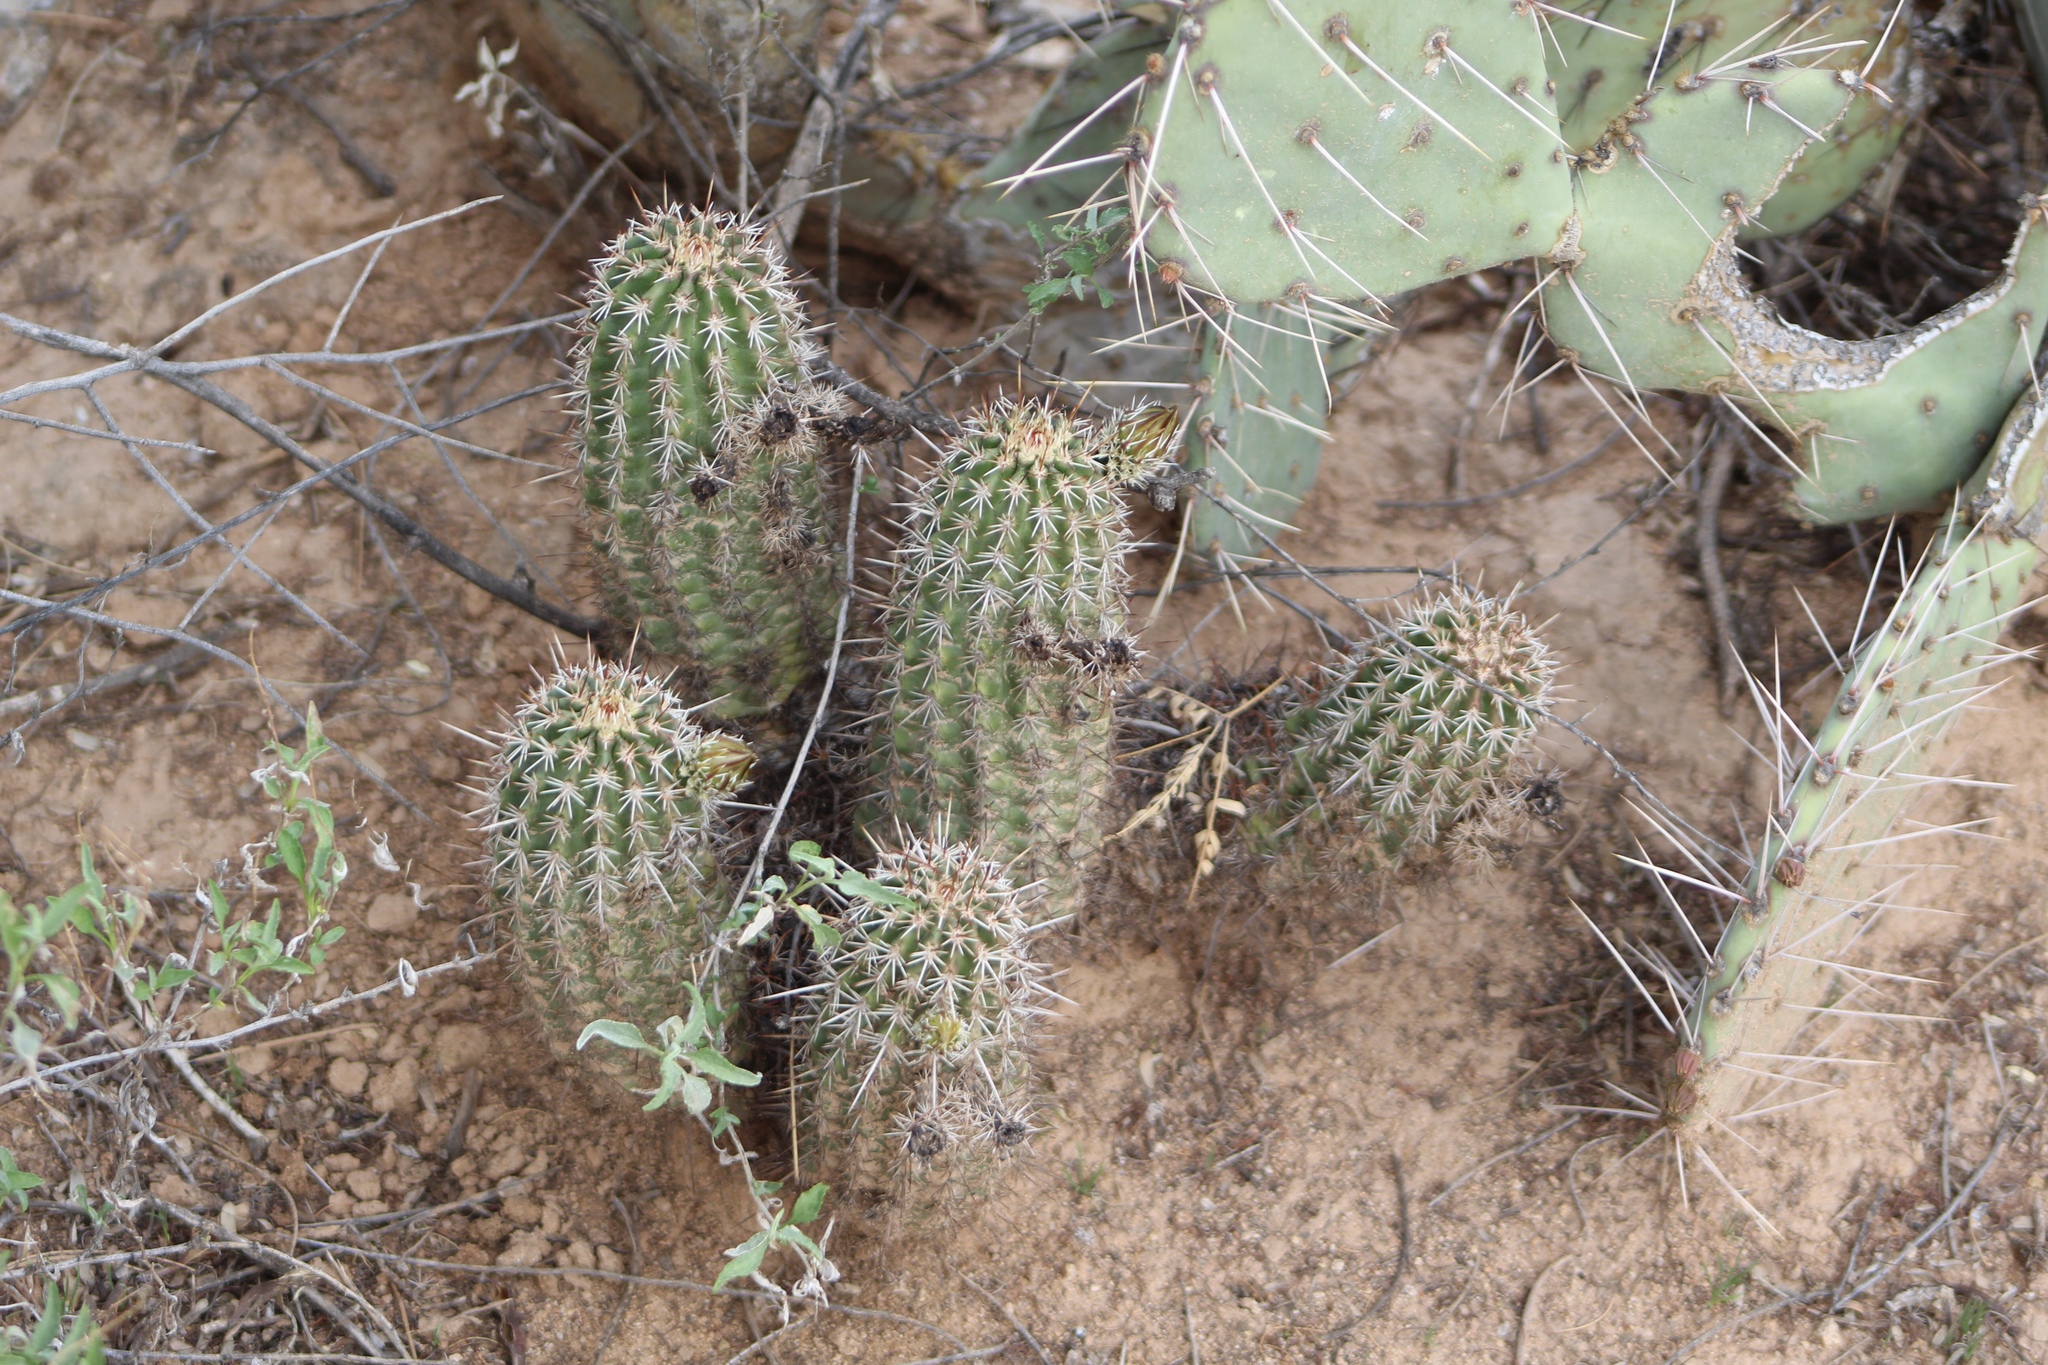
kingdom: Plantae
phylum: Tracheophyta
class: Magnoliopsida
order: Caryophyllales
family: Cactaceae
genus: Echinocereus
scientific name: Echinocereus bonkerae
